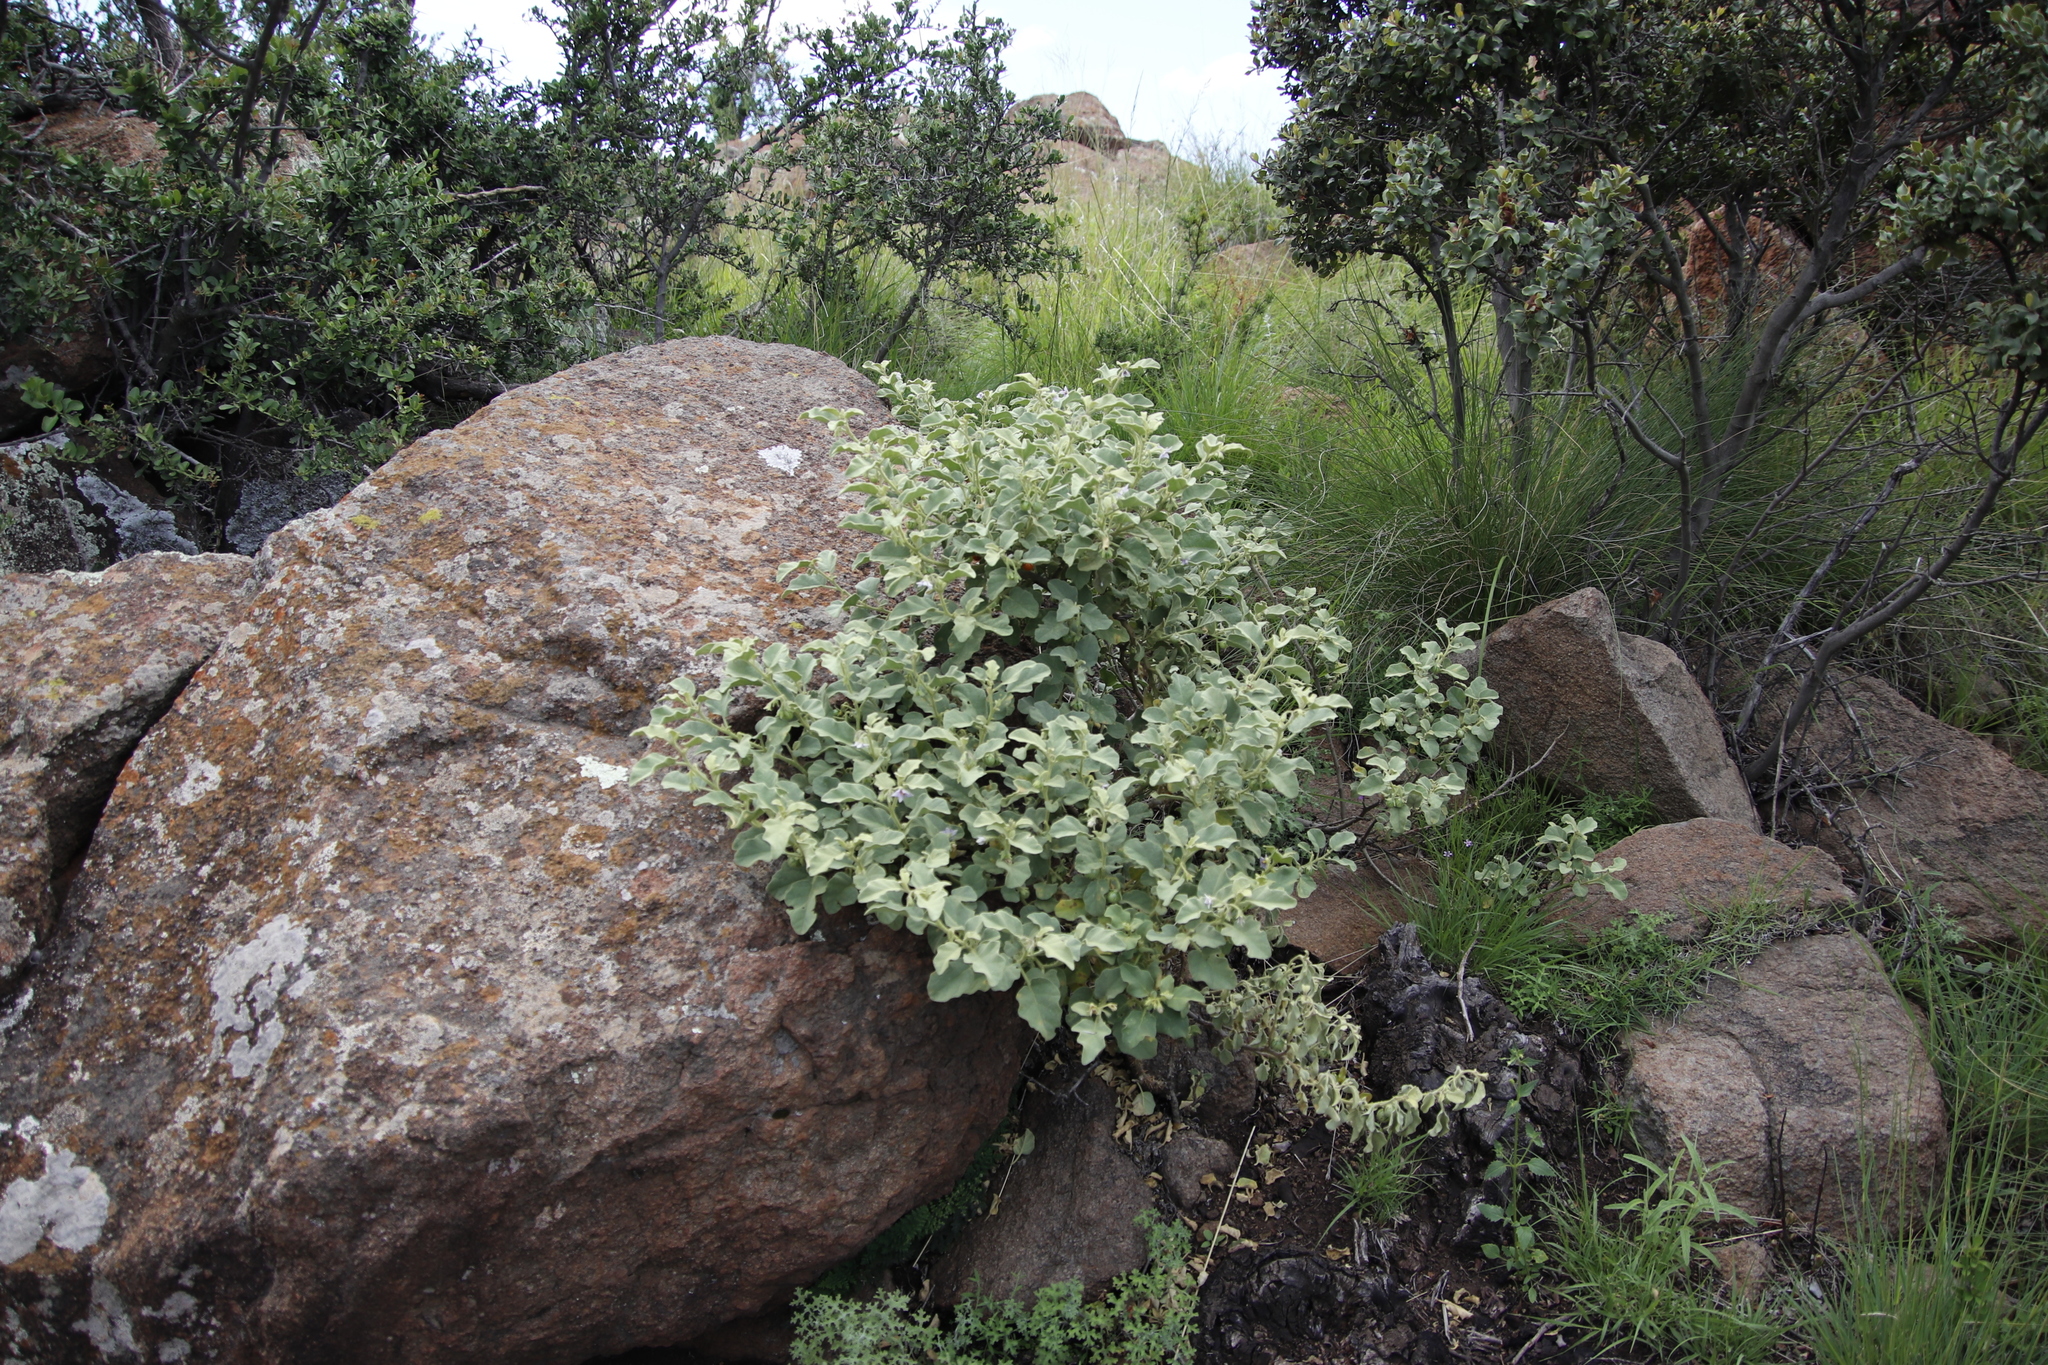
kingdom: Plantae
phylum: Tracheophyta
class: Magnoliopsida
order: Solanales
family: Solanaceae
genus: Solanum
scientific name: Solanum tomentosum
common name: Wild aubergine
